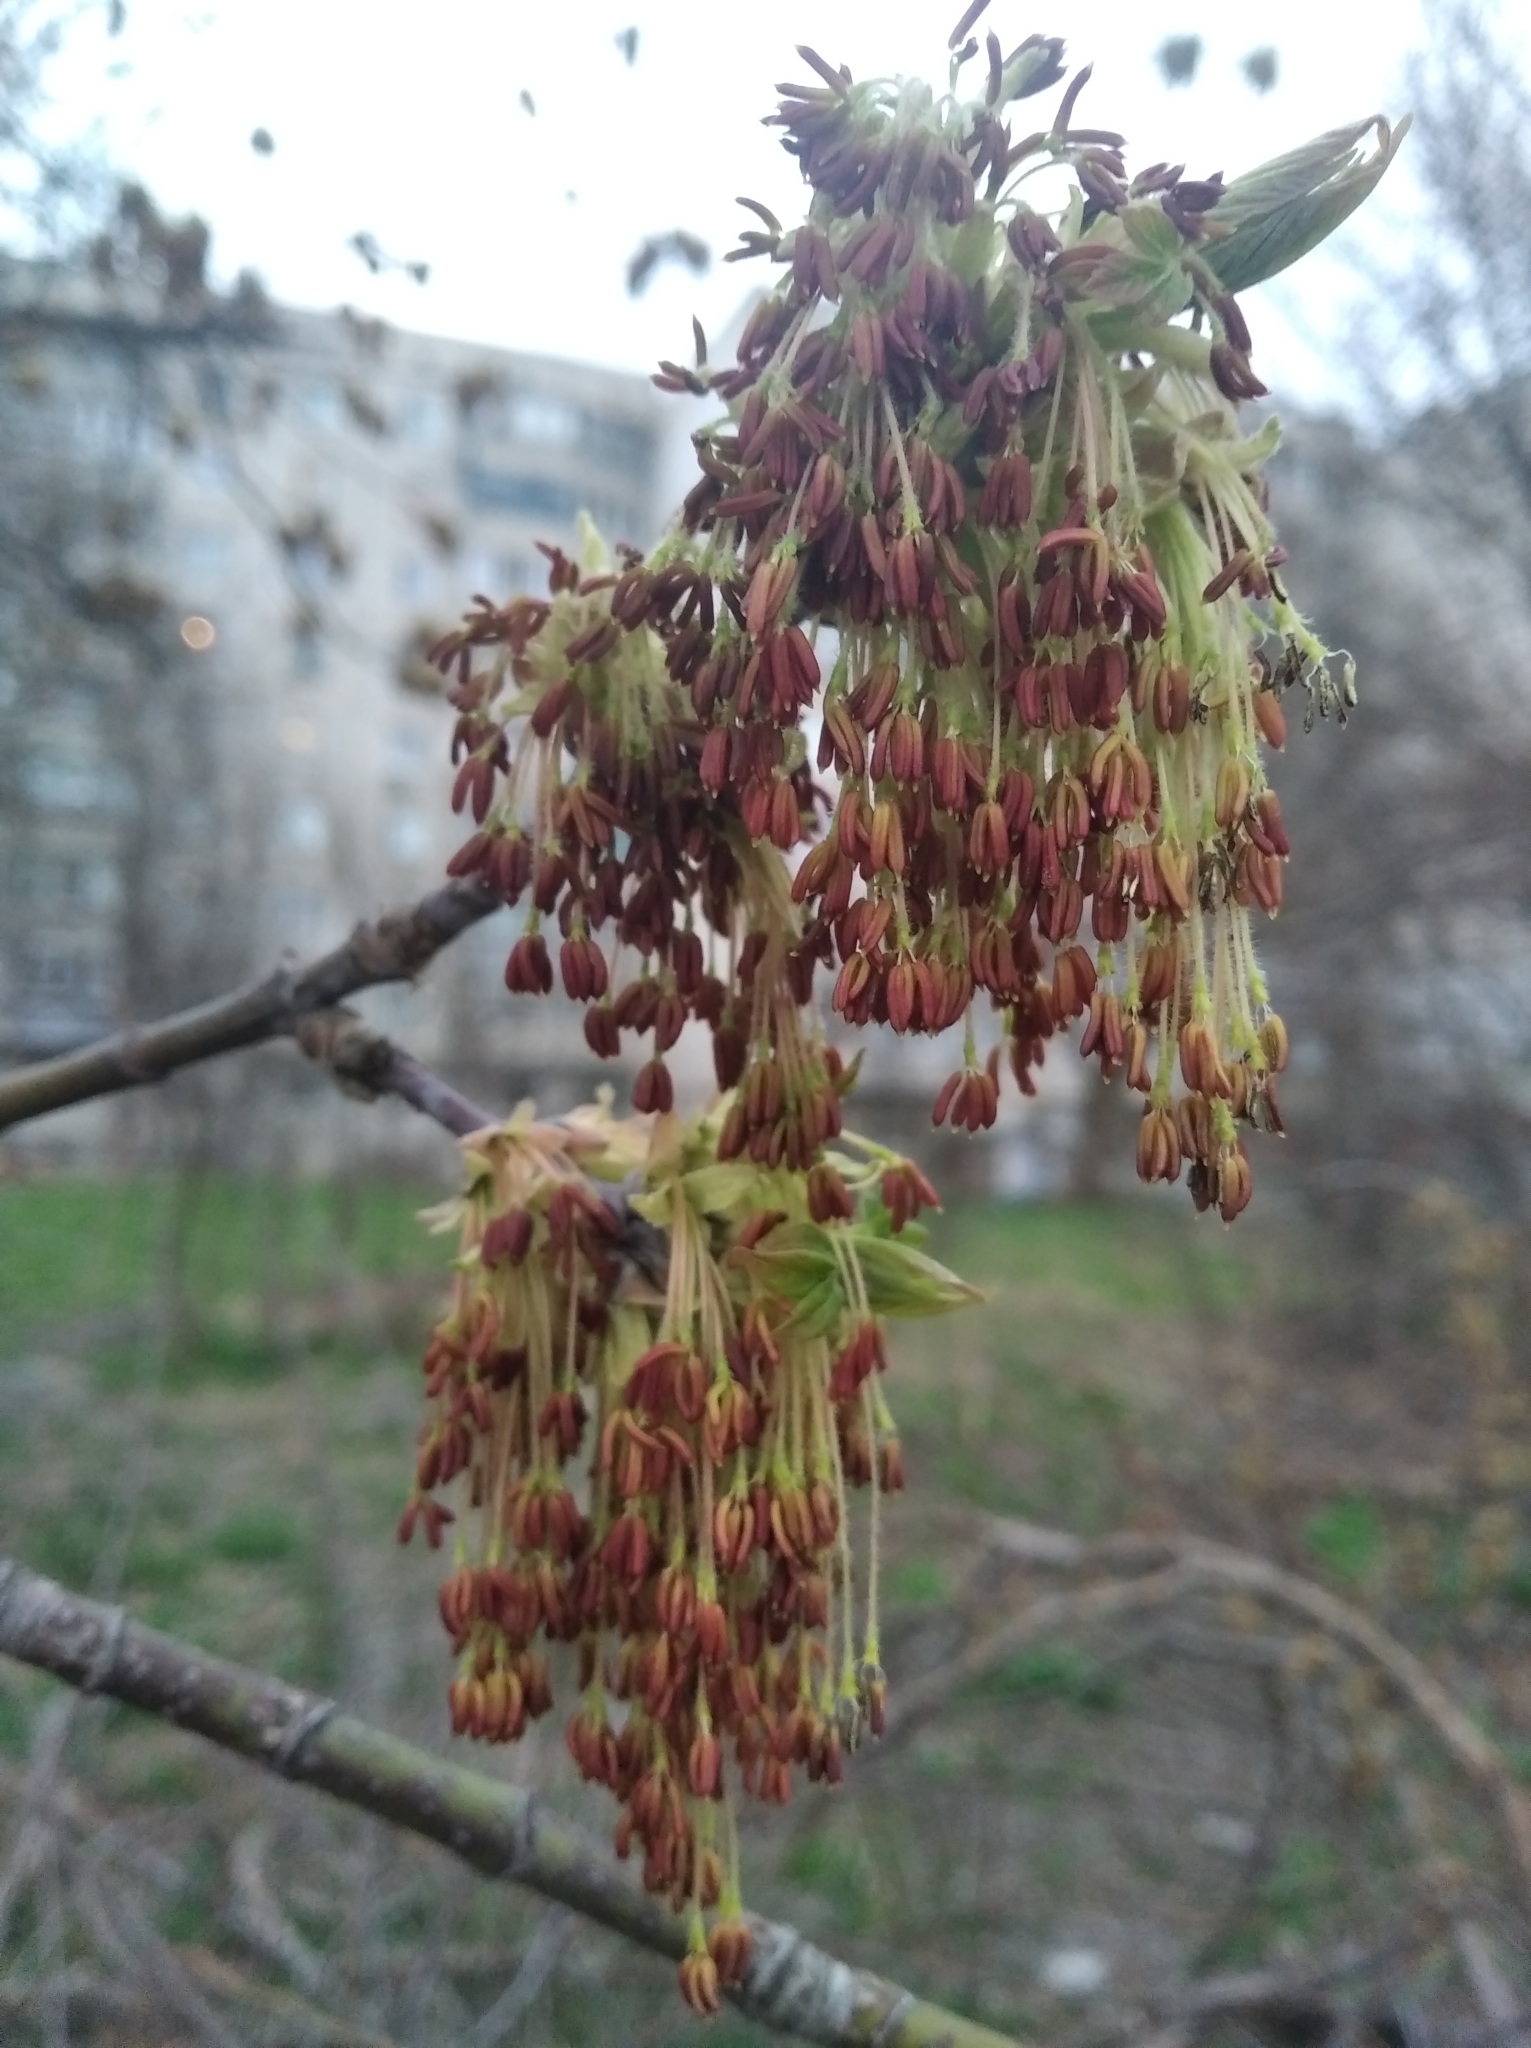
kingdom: Plantae
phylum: Tracheophyta
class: Magnoliopsida
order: Sapindales
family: Sapindaceae
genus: Acer
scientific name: Acer negundo
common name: Ashleaf maple
